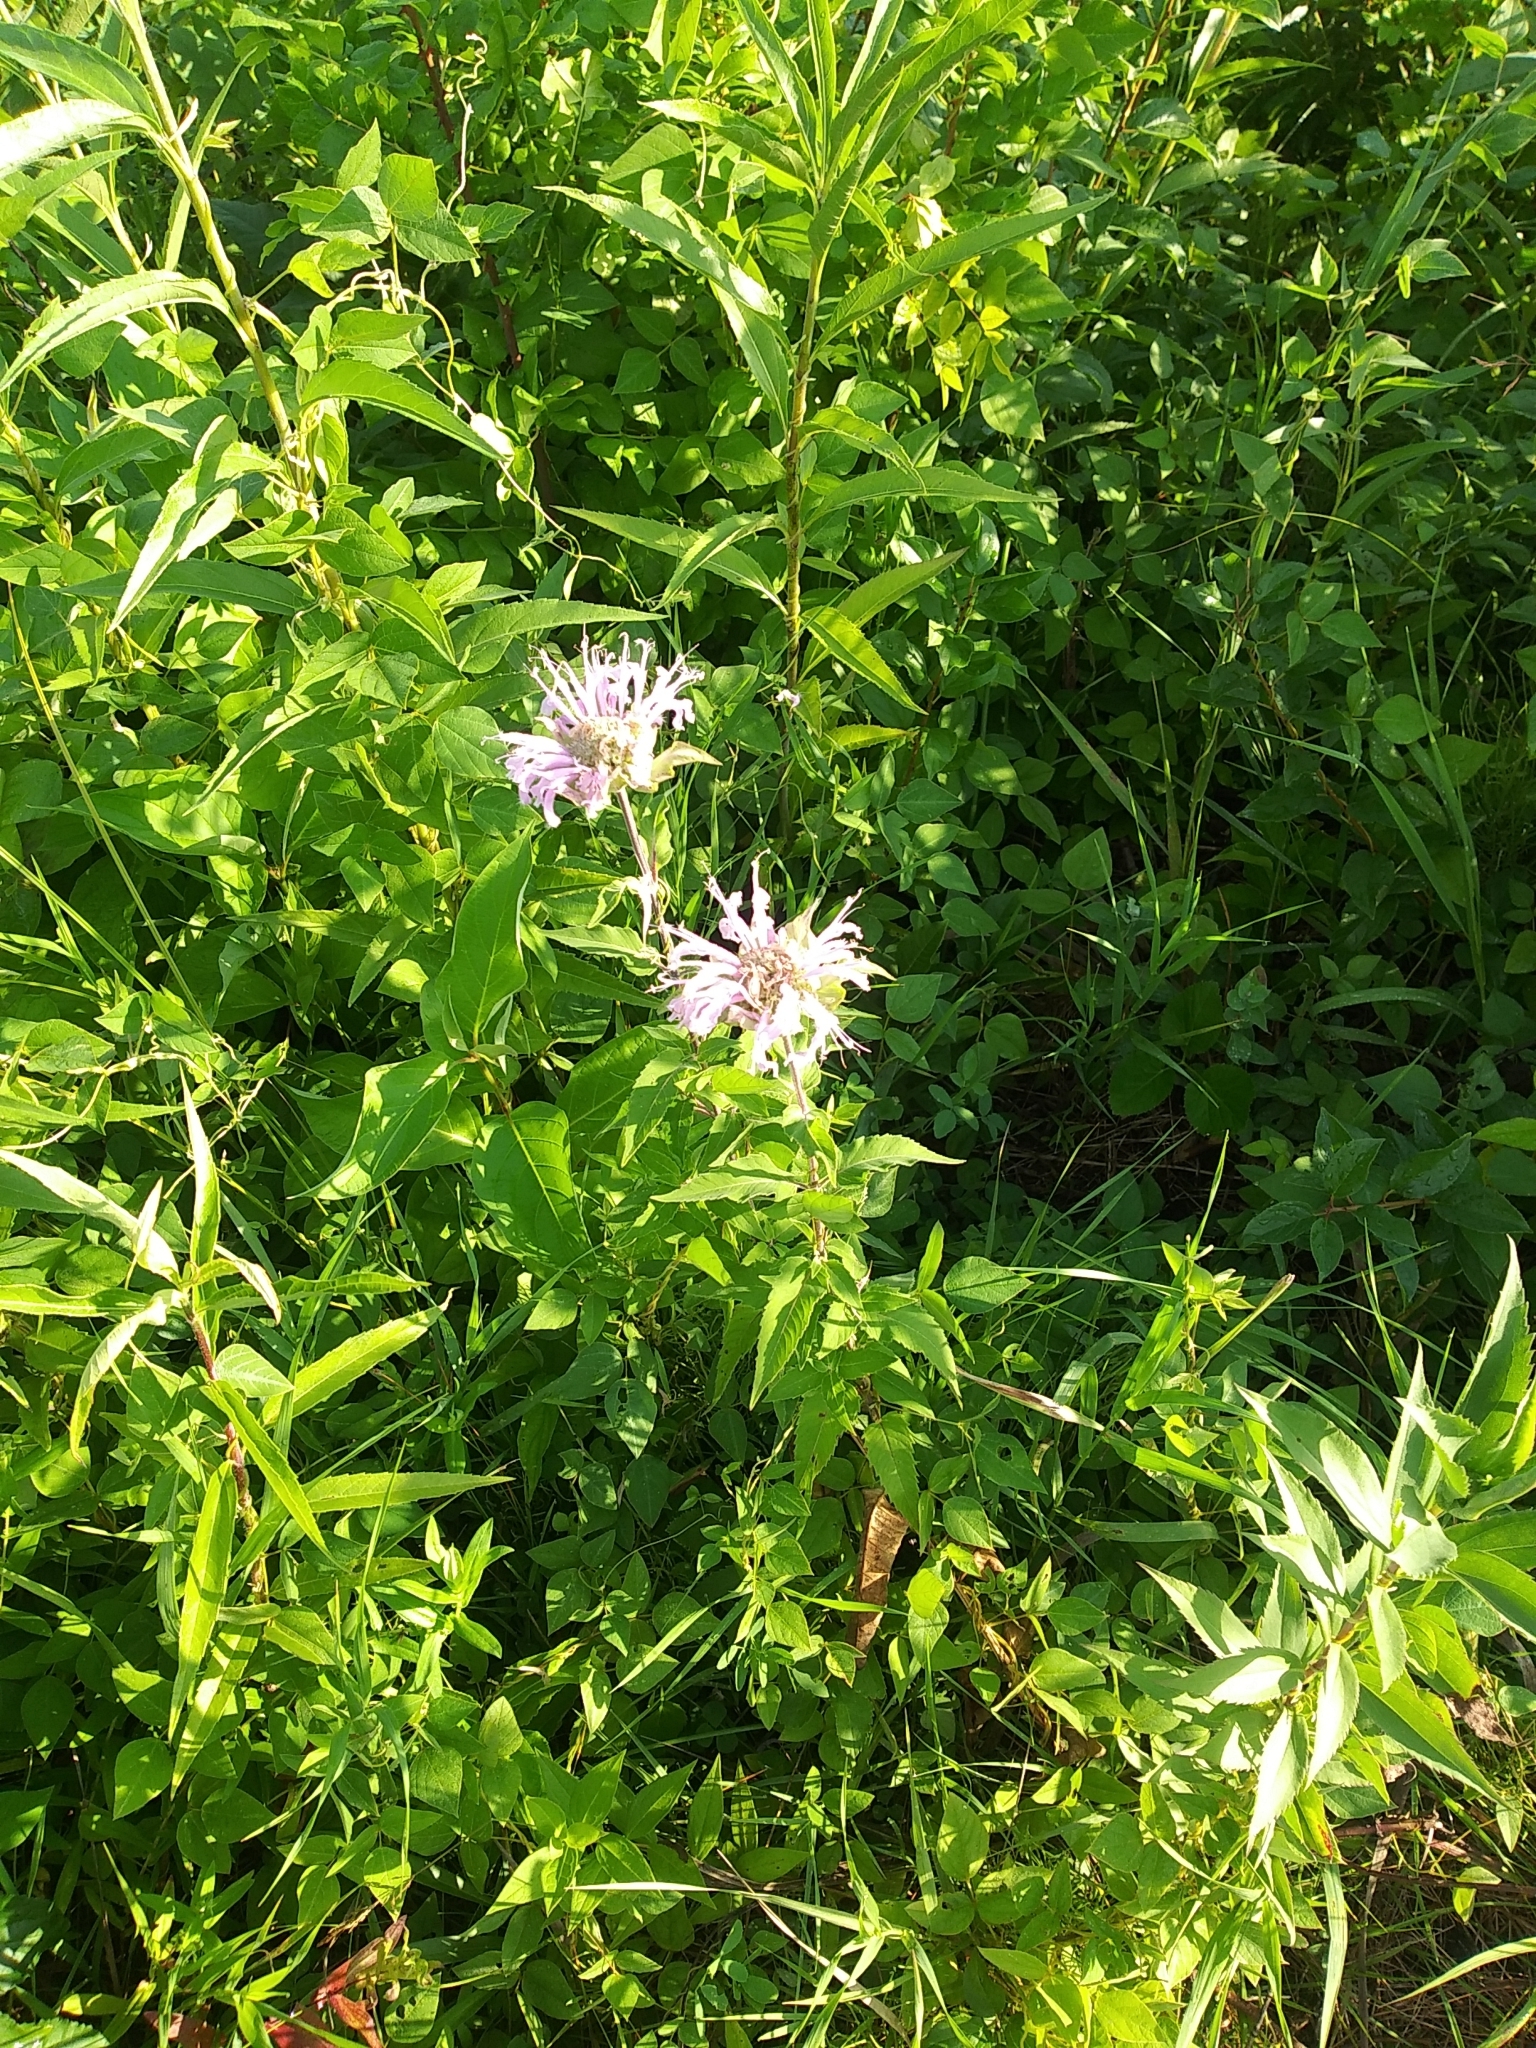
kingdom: Plantae
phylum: Tracheophyta
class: Magnoliopsida
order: Lamiales
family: Lamiaceae
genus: Monarda
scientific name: Monarda fistulosa
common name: Purple beebalm
